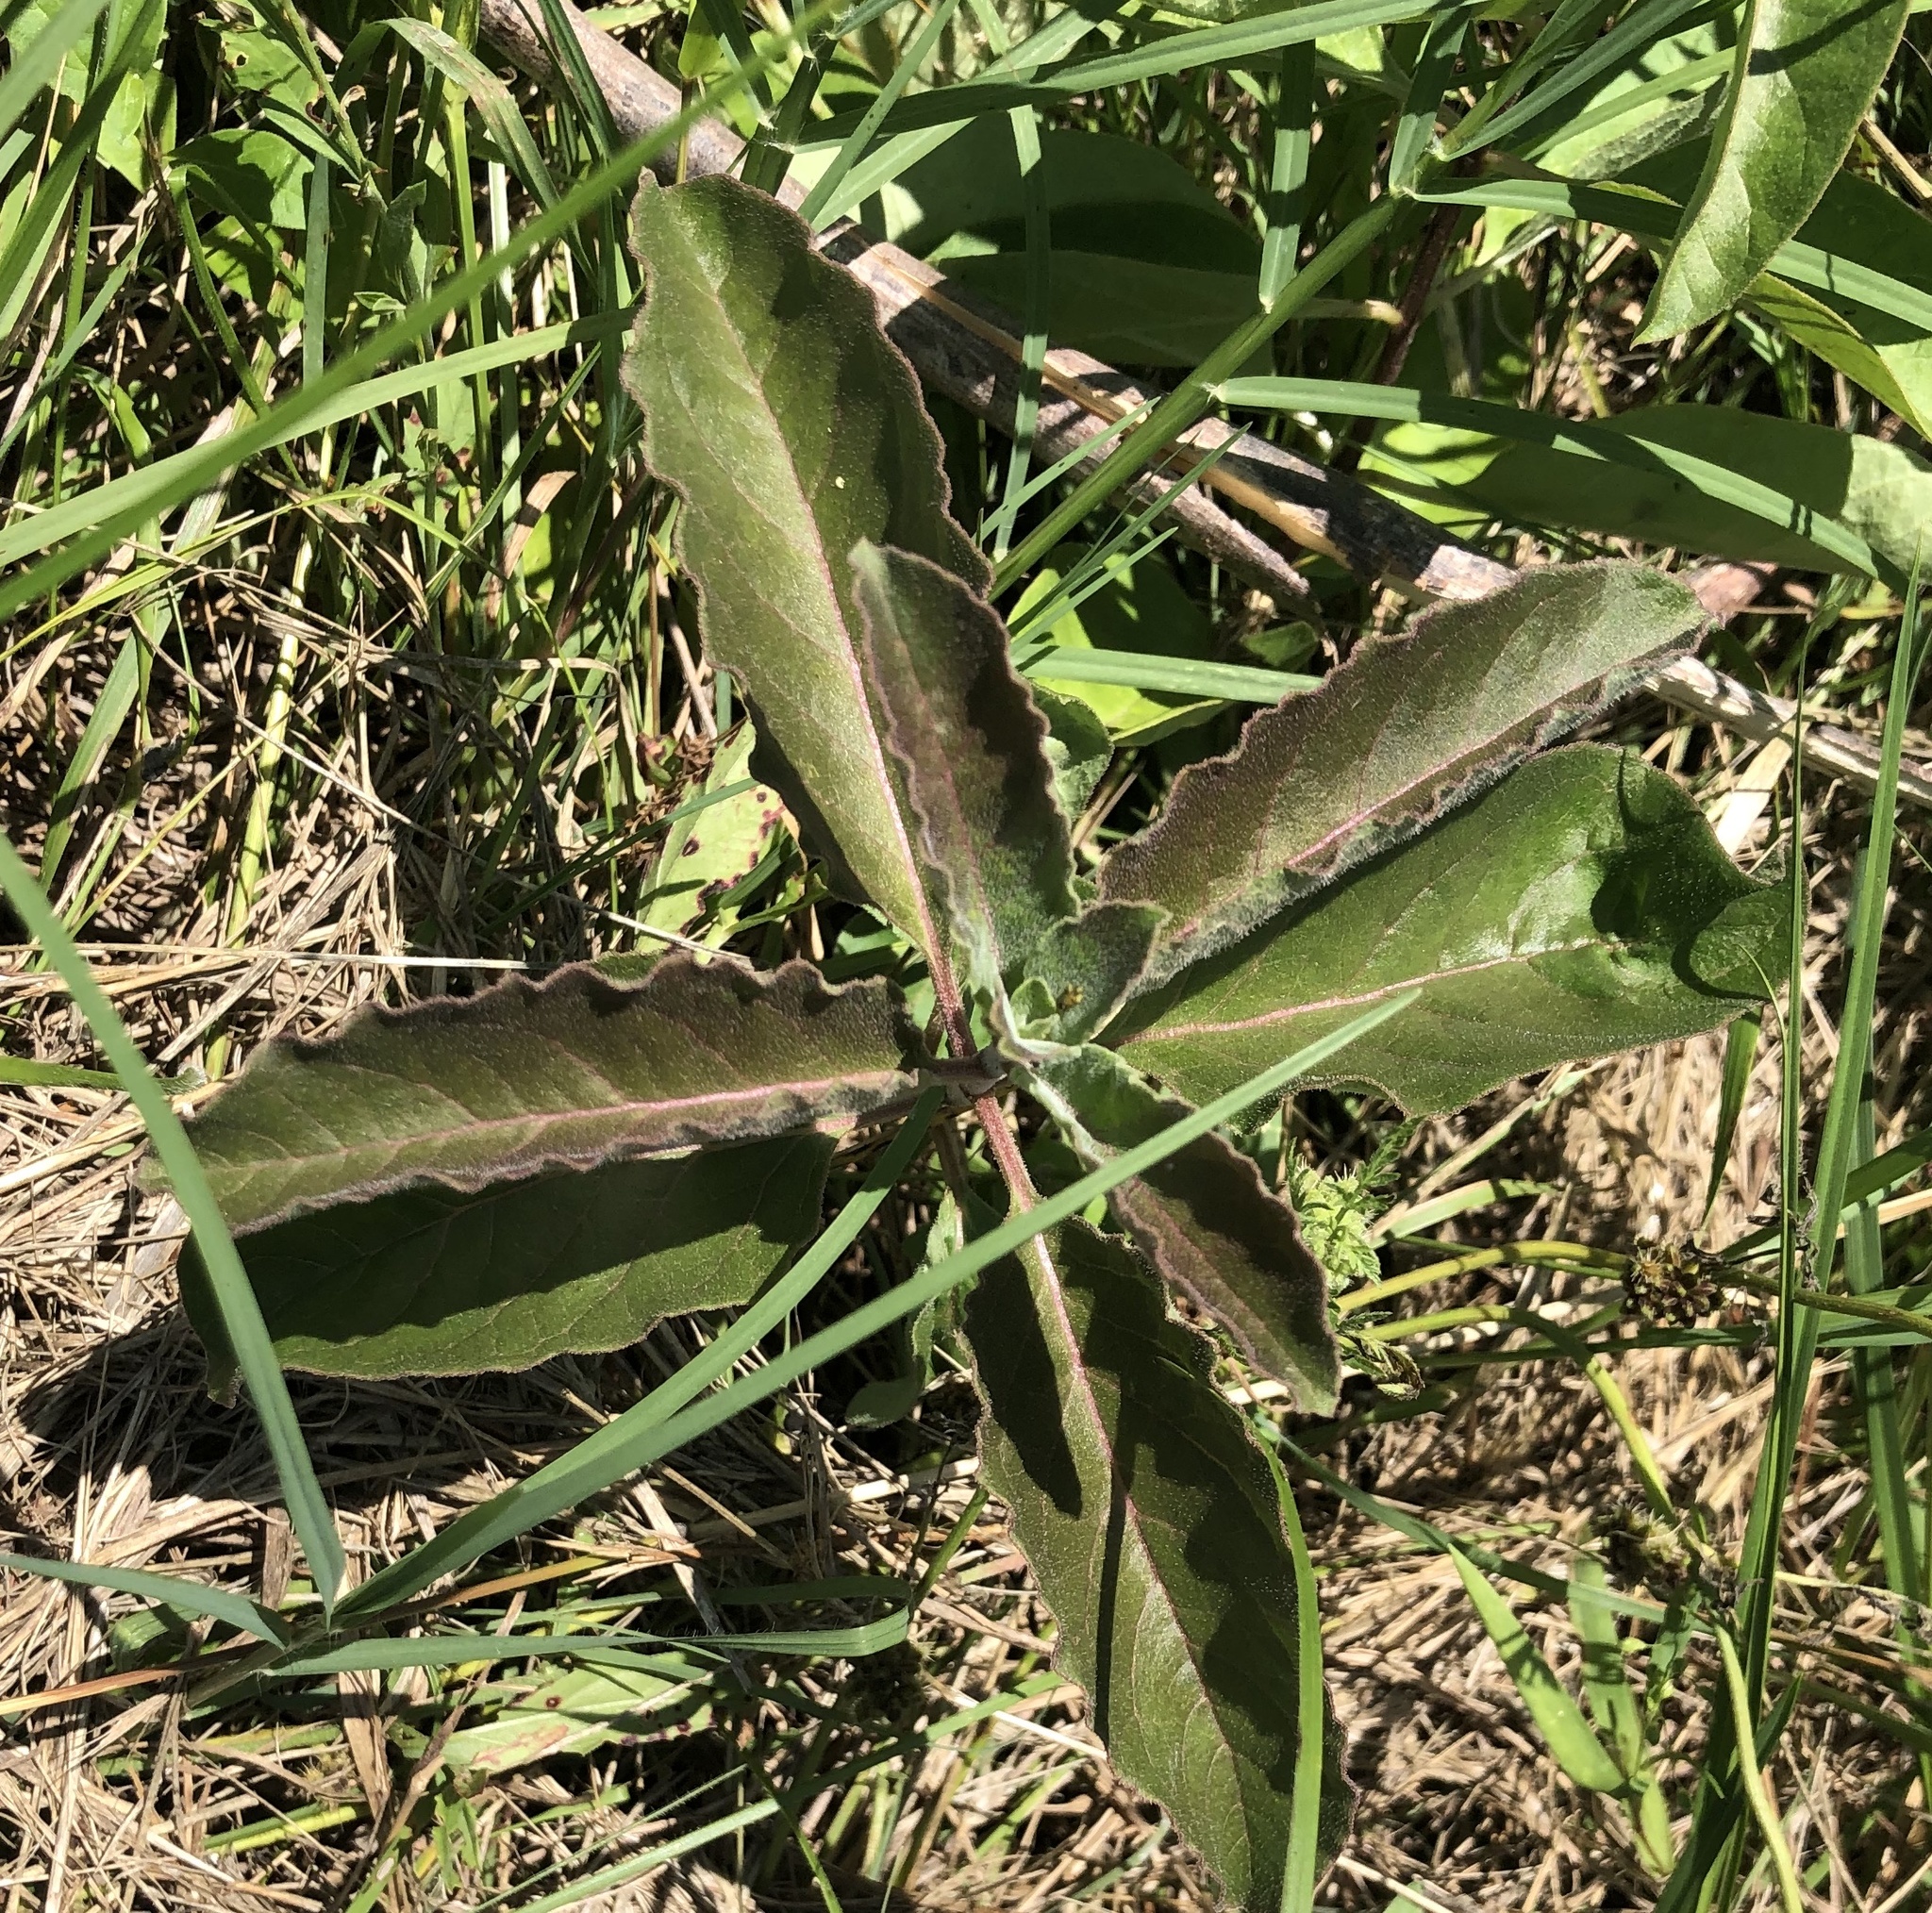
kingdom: Plantae
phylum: Tracheophyta
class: Magnoliopsida
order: Gentianales
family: Apocynaceae
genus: Asclepias
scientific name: Asclepias oenotheroides
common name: Zizotes milkweed
